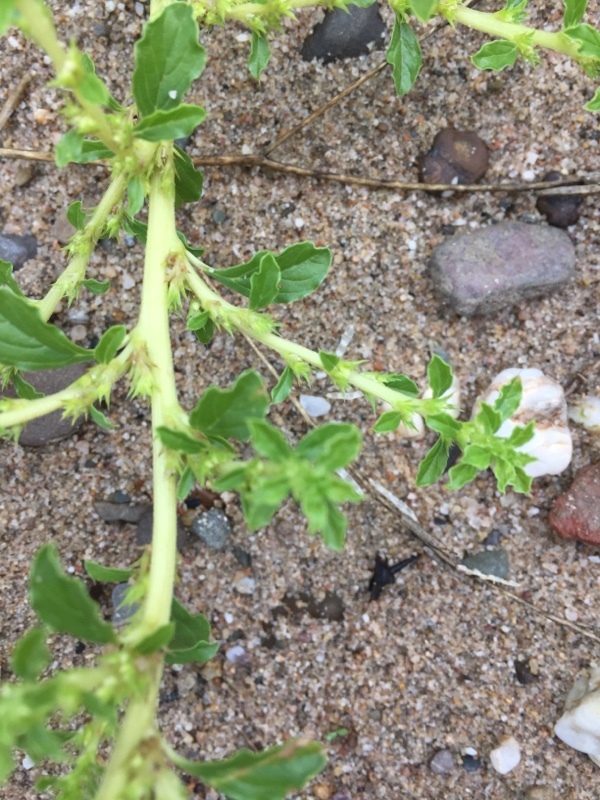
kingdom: Plantae
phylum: Tracheophyta
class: Magnoliopsida
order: Caryophyllales
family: Amaranthaceae
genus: Amaranthus
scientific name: Amaranthus albus
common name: White pigweed
